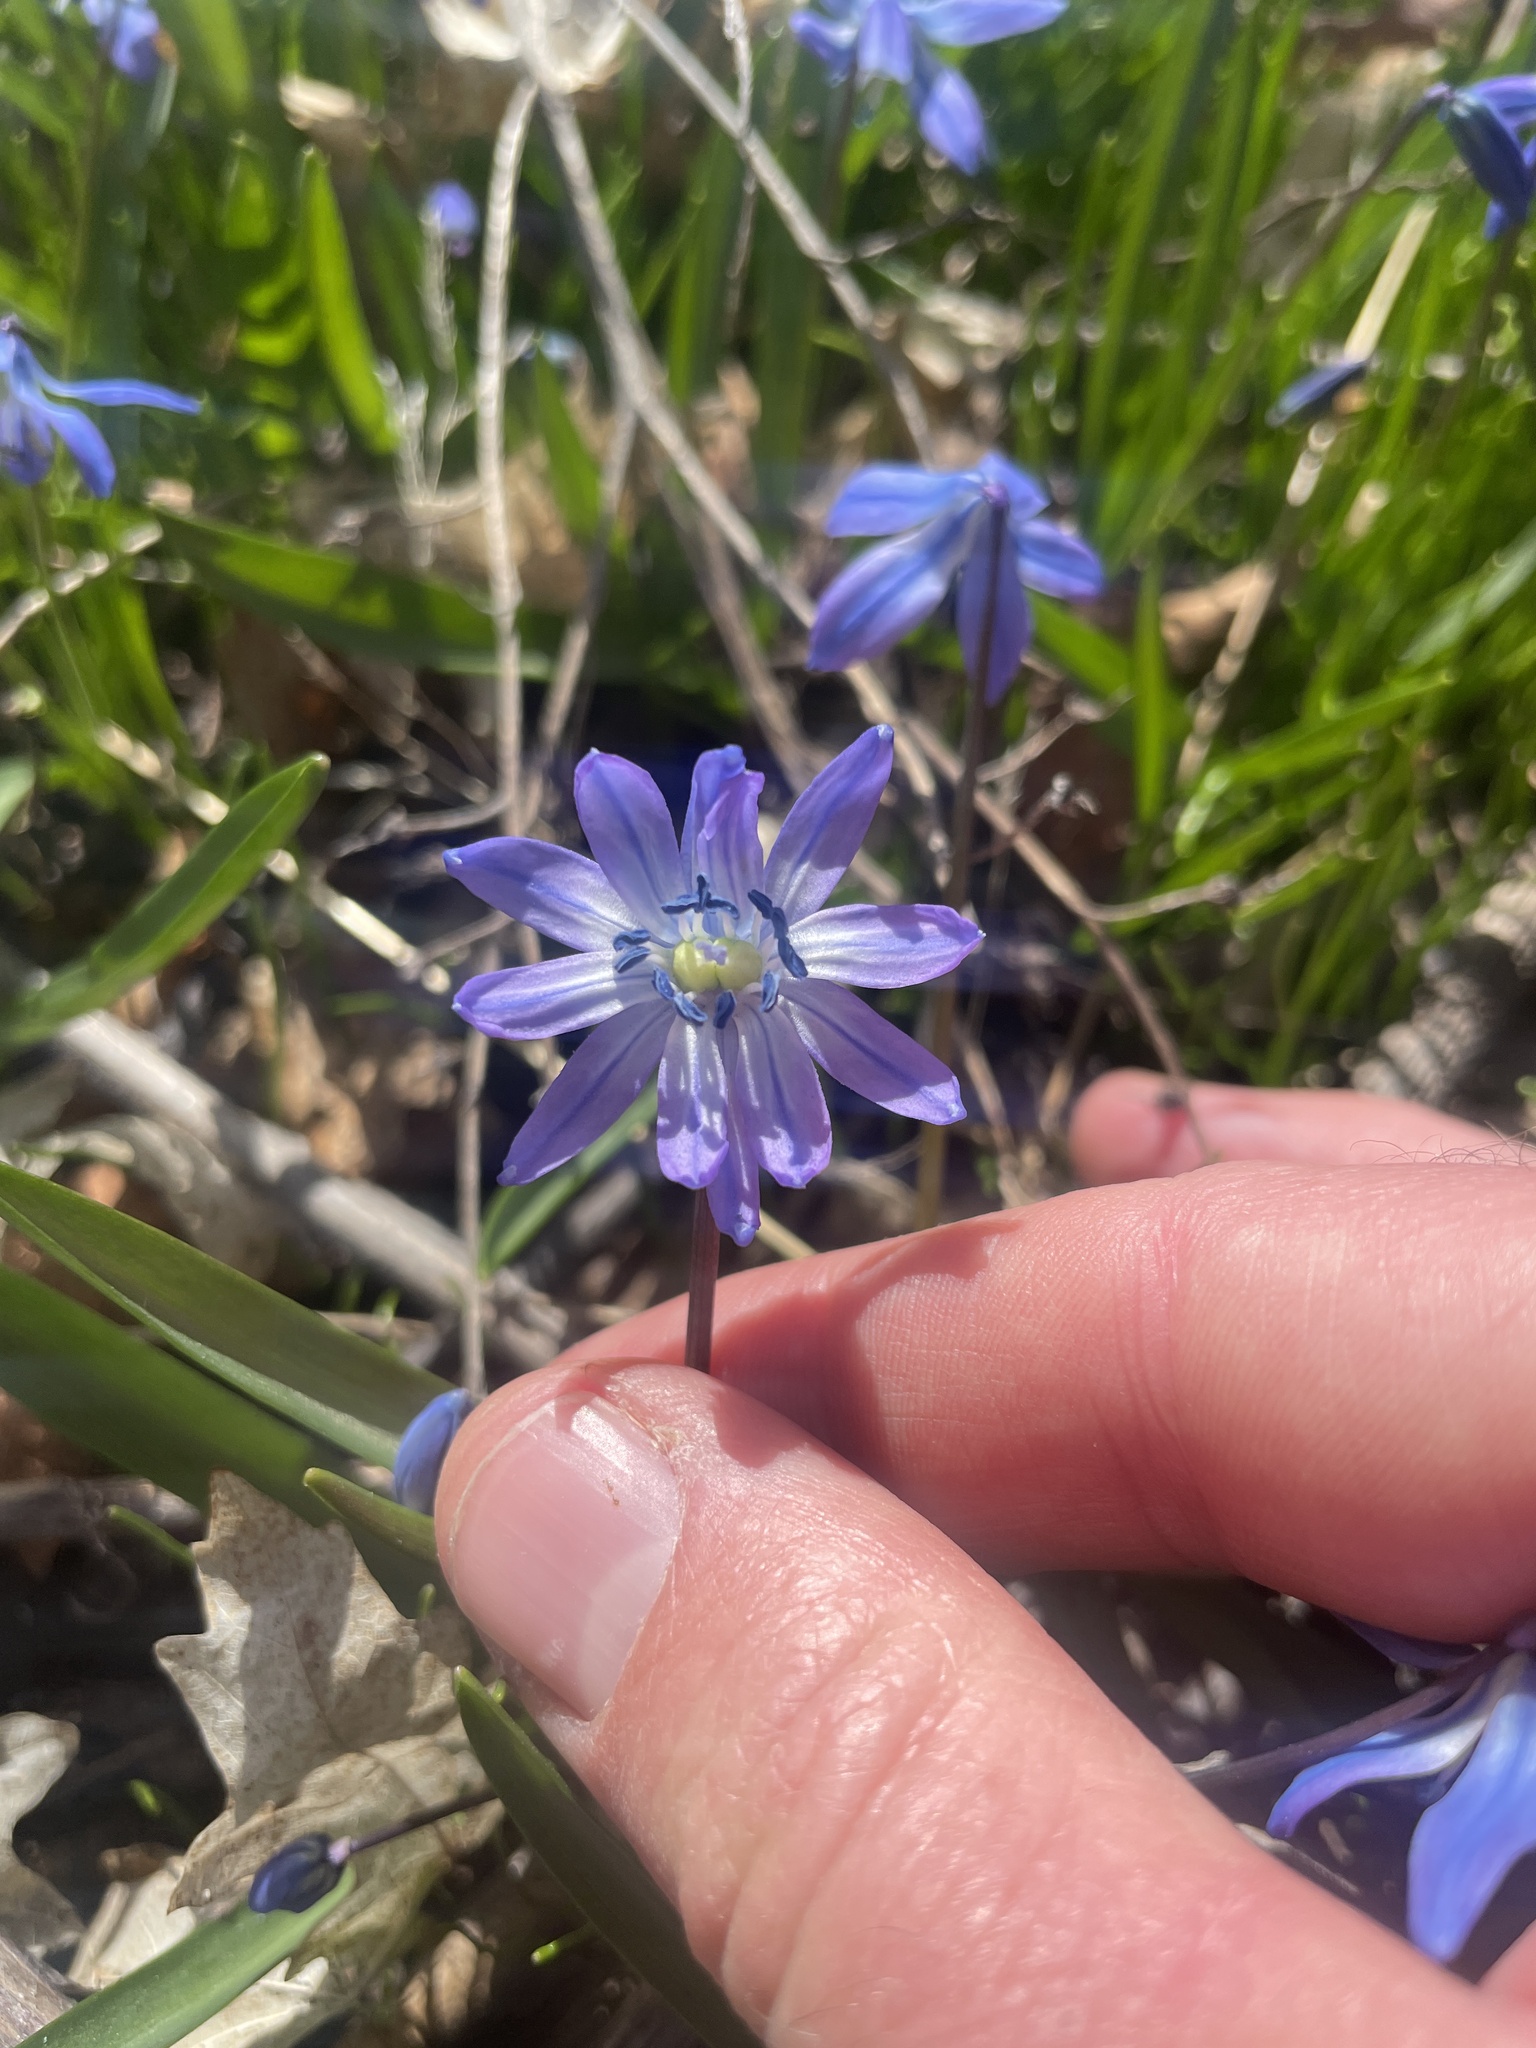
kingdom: Plantae
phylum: Tracheophyta
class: Liliopsida
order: Asparagales
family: Asparagaceae
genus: Scilla
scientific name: Scilla siberica
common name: Siberian squill
